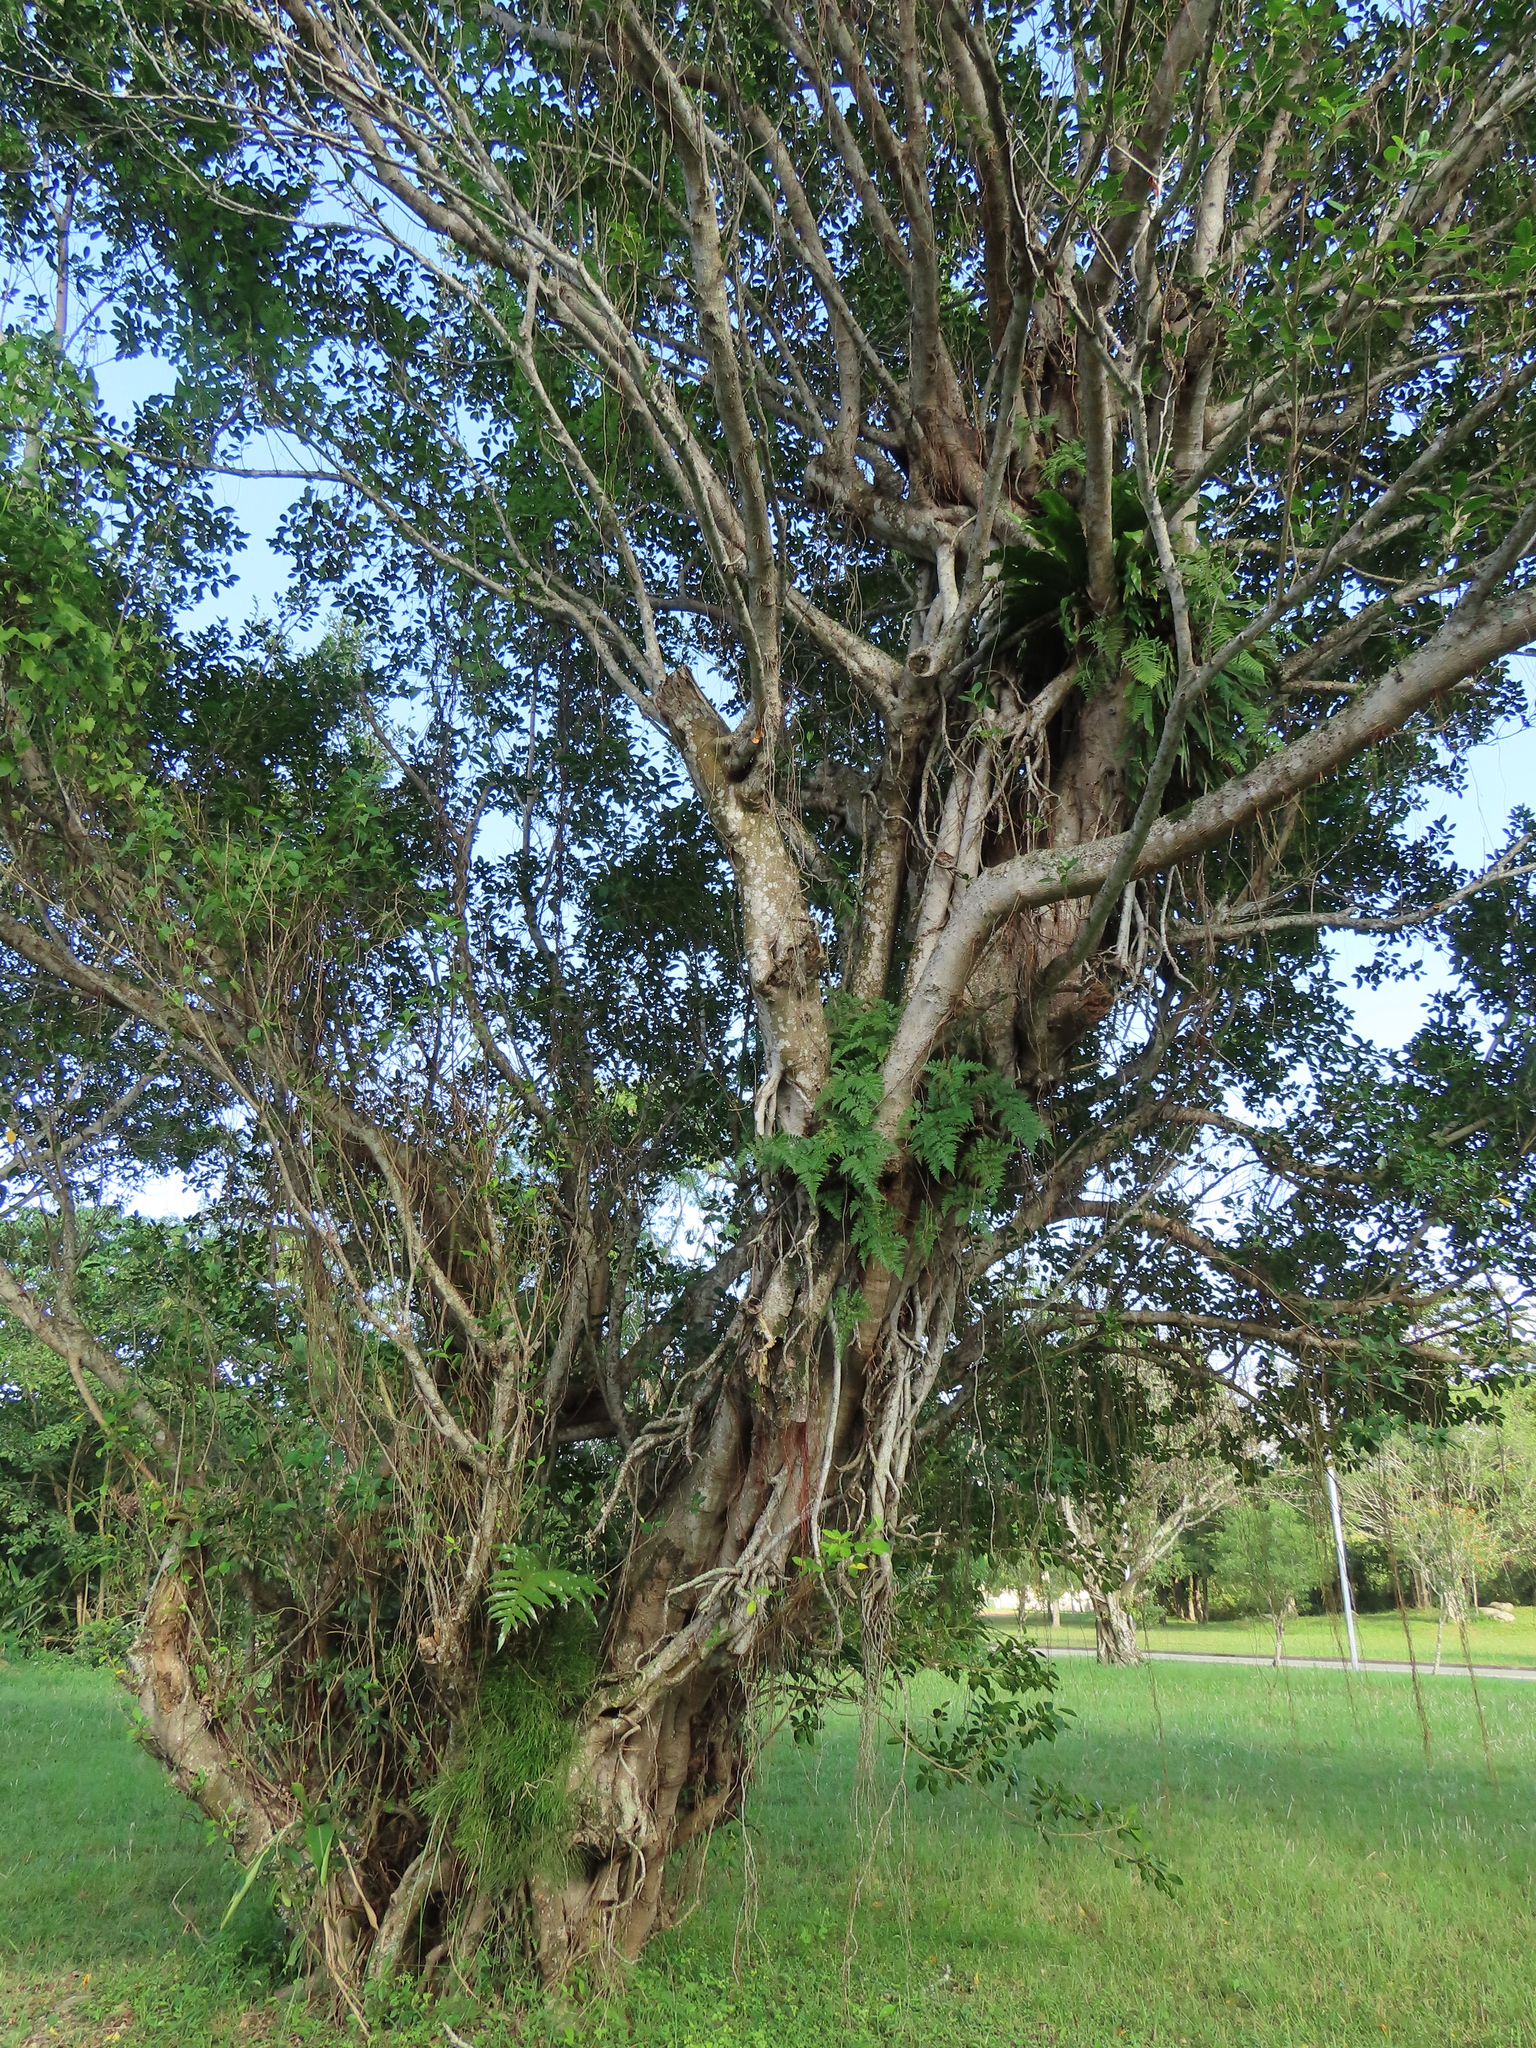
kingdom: Plantae
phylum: Tracheophyta
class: Polypodiopsida
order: Psilotales
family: Psilotaceae
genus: Psilotum
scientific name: Psilotum nudum
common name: Skeleton fork fern
